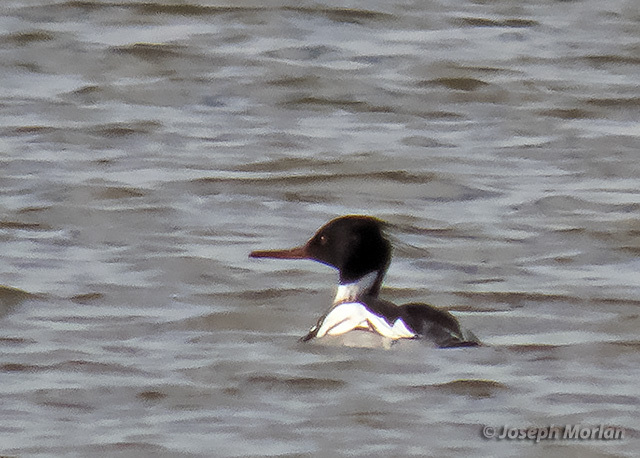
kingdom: Animalia
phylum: Chordata
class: Aves
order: Anseriformes
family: Anatidae
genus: Mergus
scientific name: Mergus serrator
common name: Red-breasted merganser
